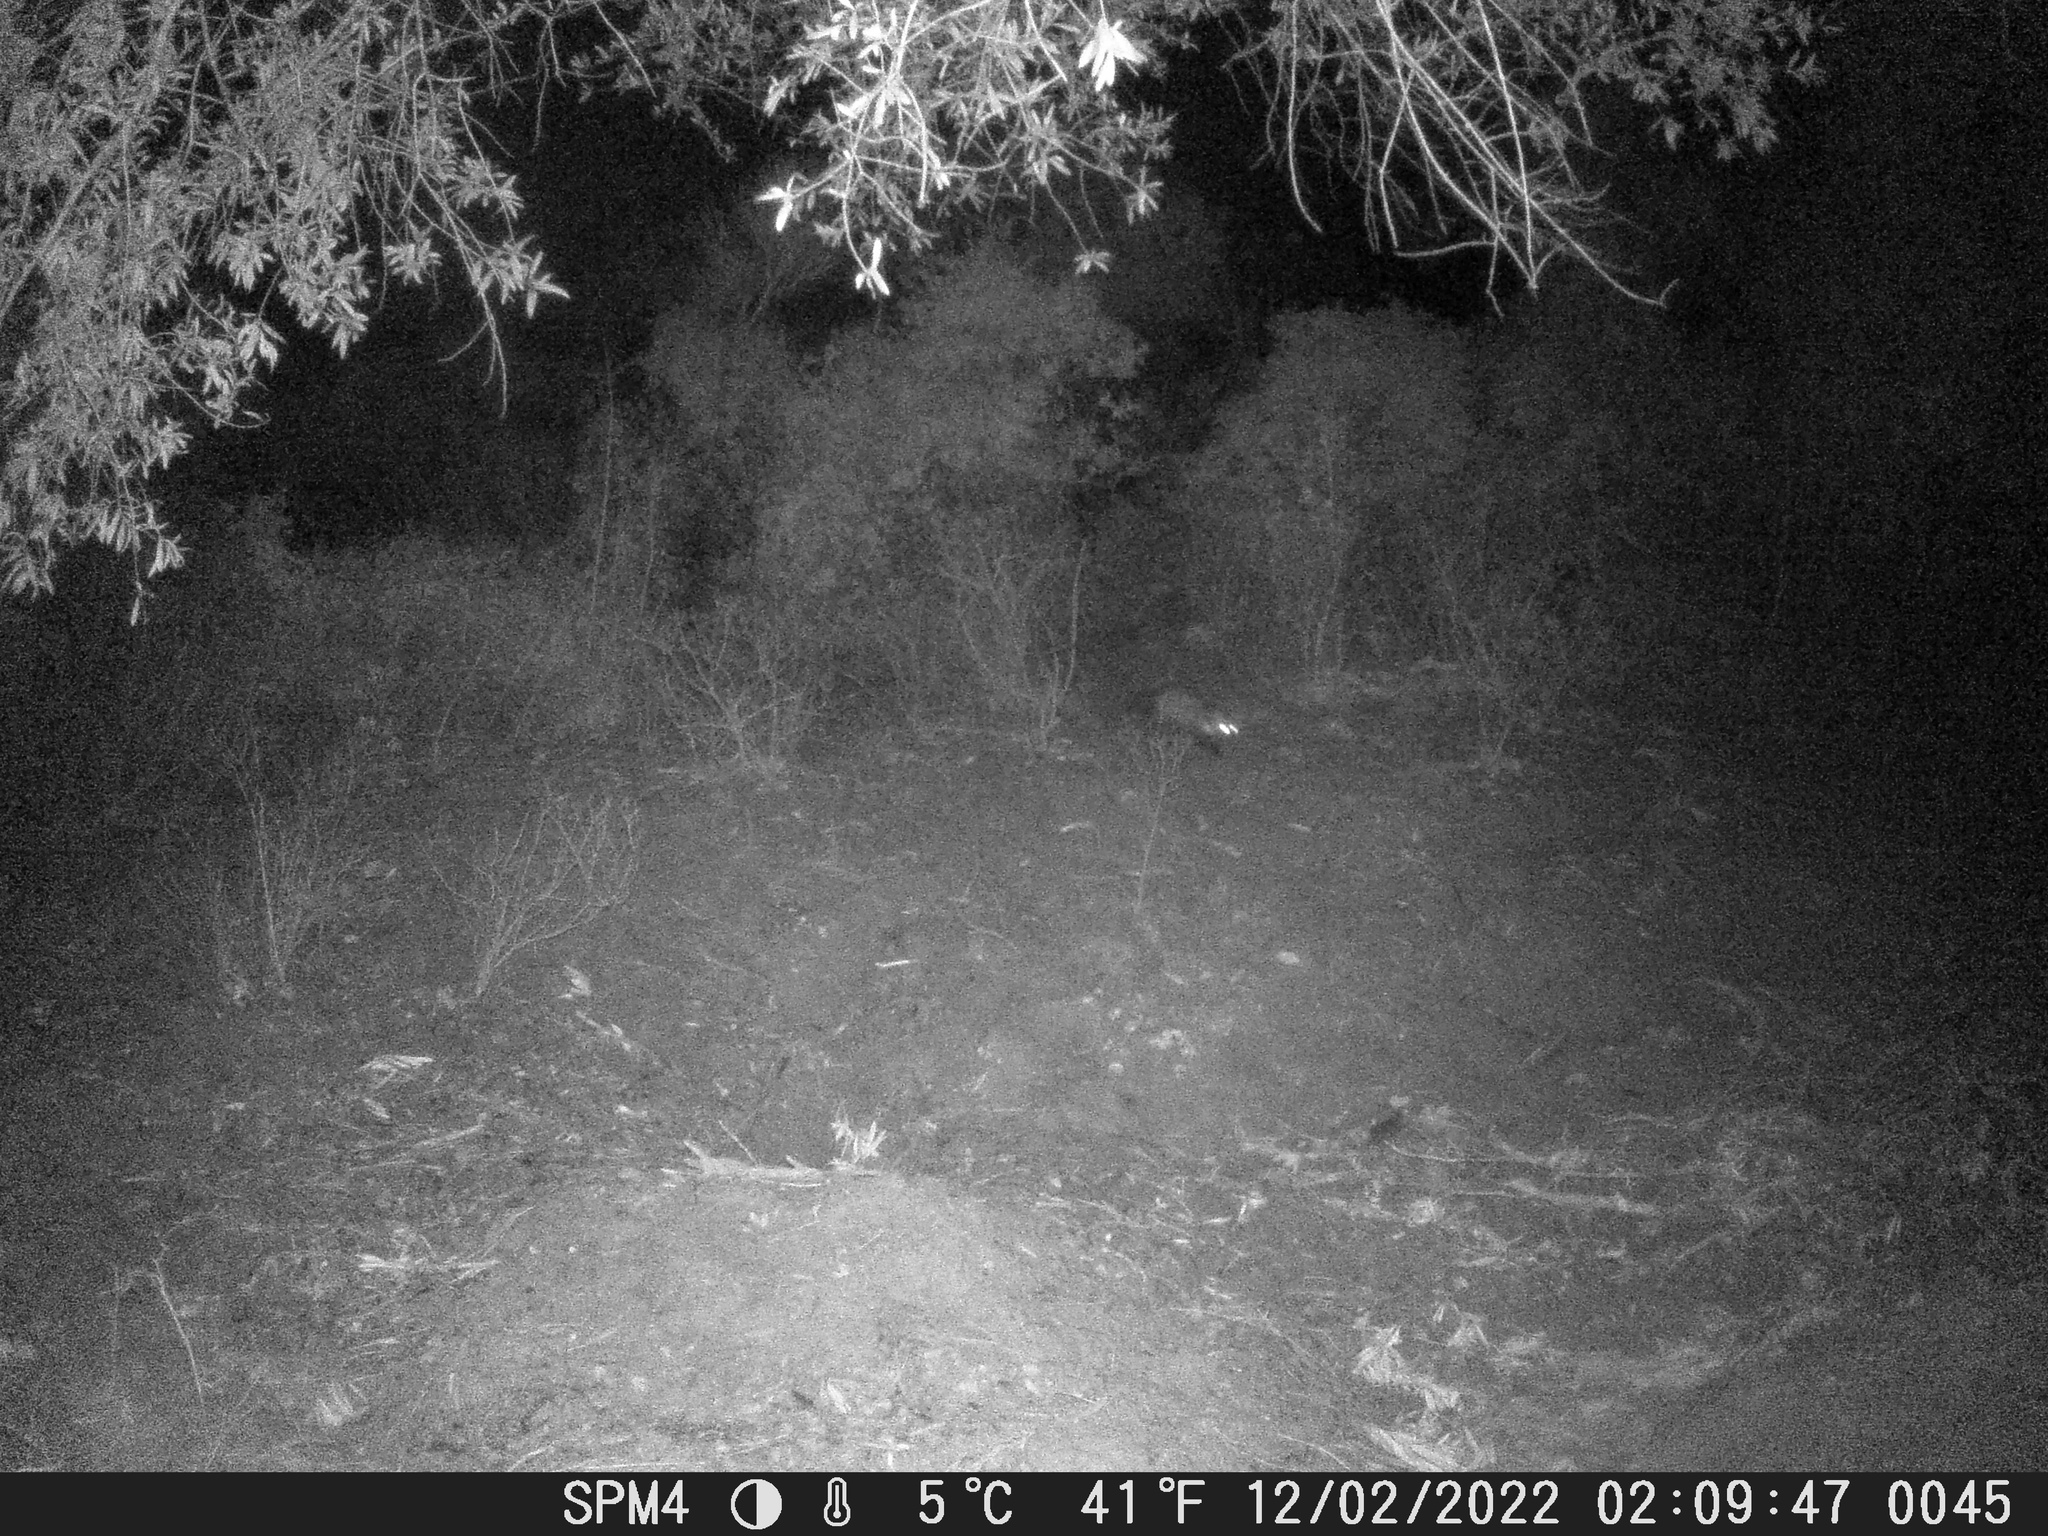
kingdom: Animalia
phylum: Chordata
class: Mammalia
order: Carnivora
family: Mustelidae
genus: Martes
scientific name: Martes foina
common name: Beech marten
